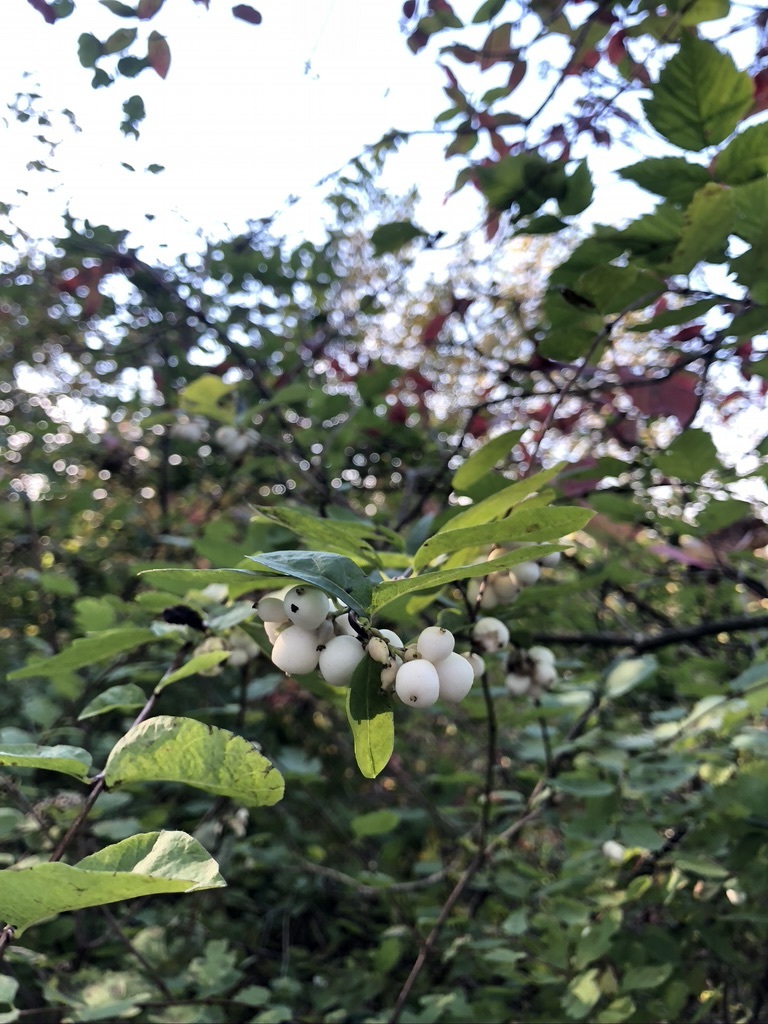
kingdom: Plantae
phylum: Tracheophyta
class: Magnoliopsida
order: Dipsacales
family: Caprifoliaceae
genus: Symphoricarpos
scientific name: Symphoricarpos albus
